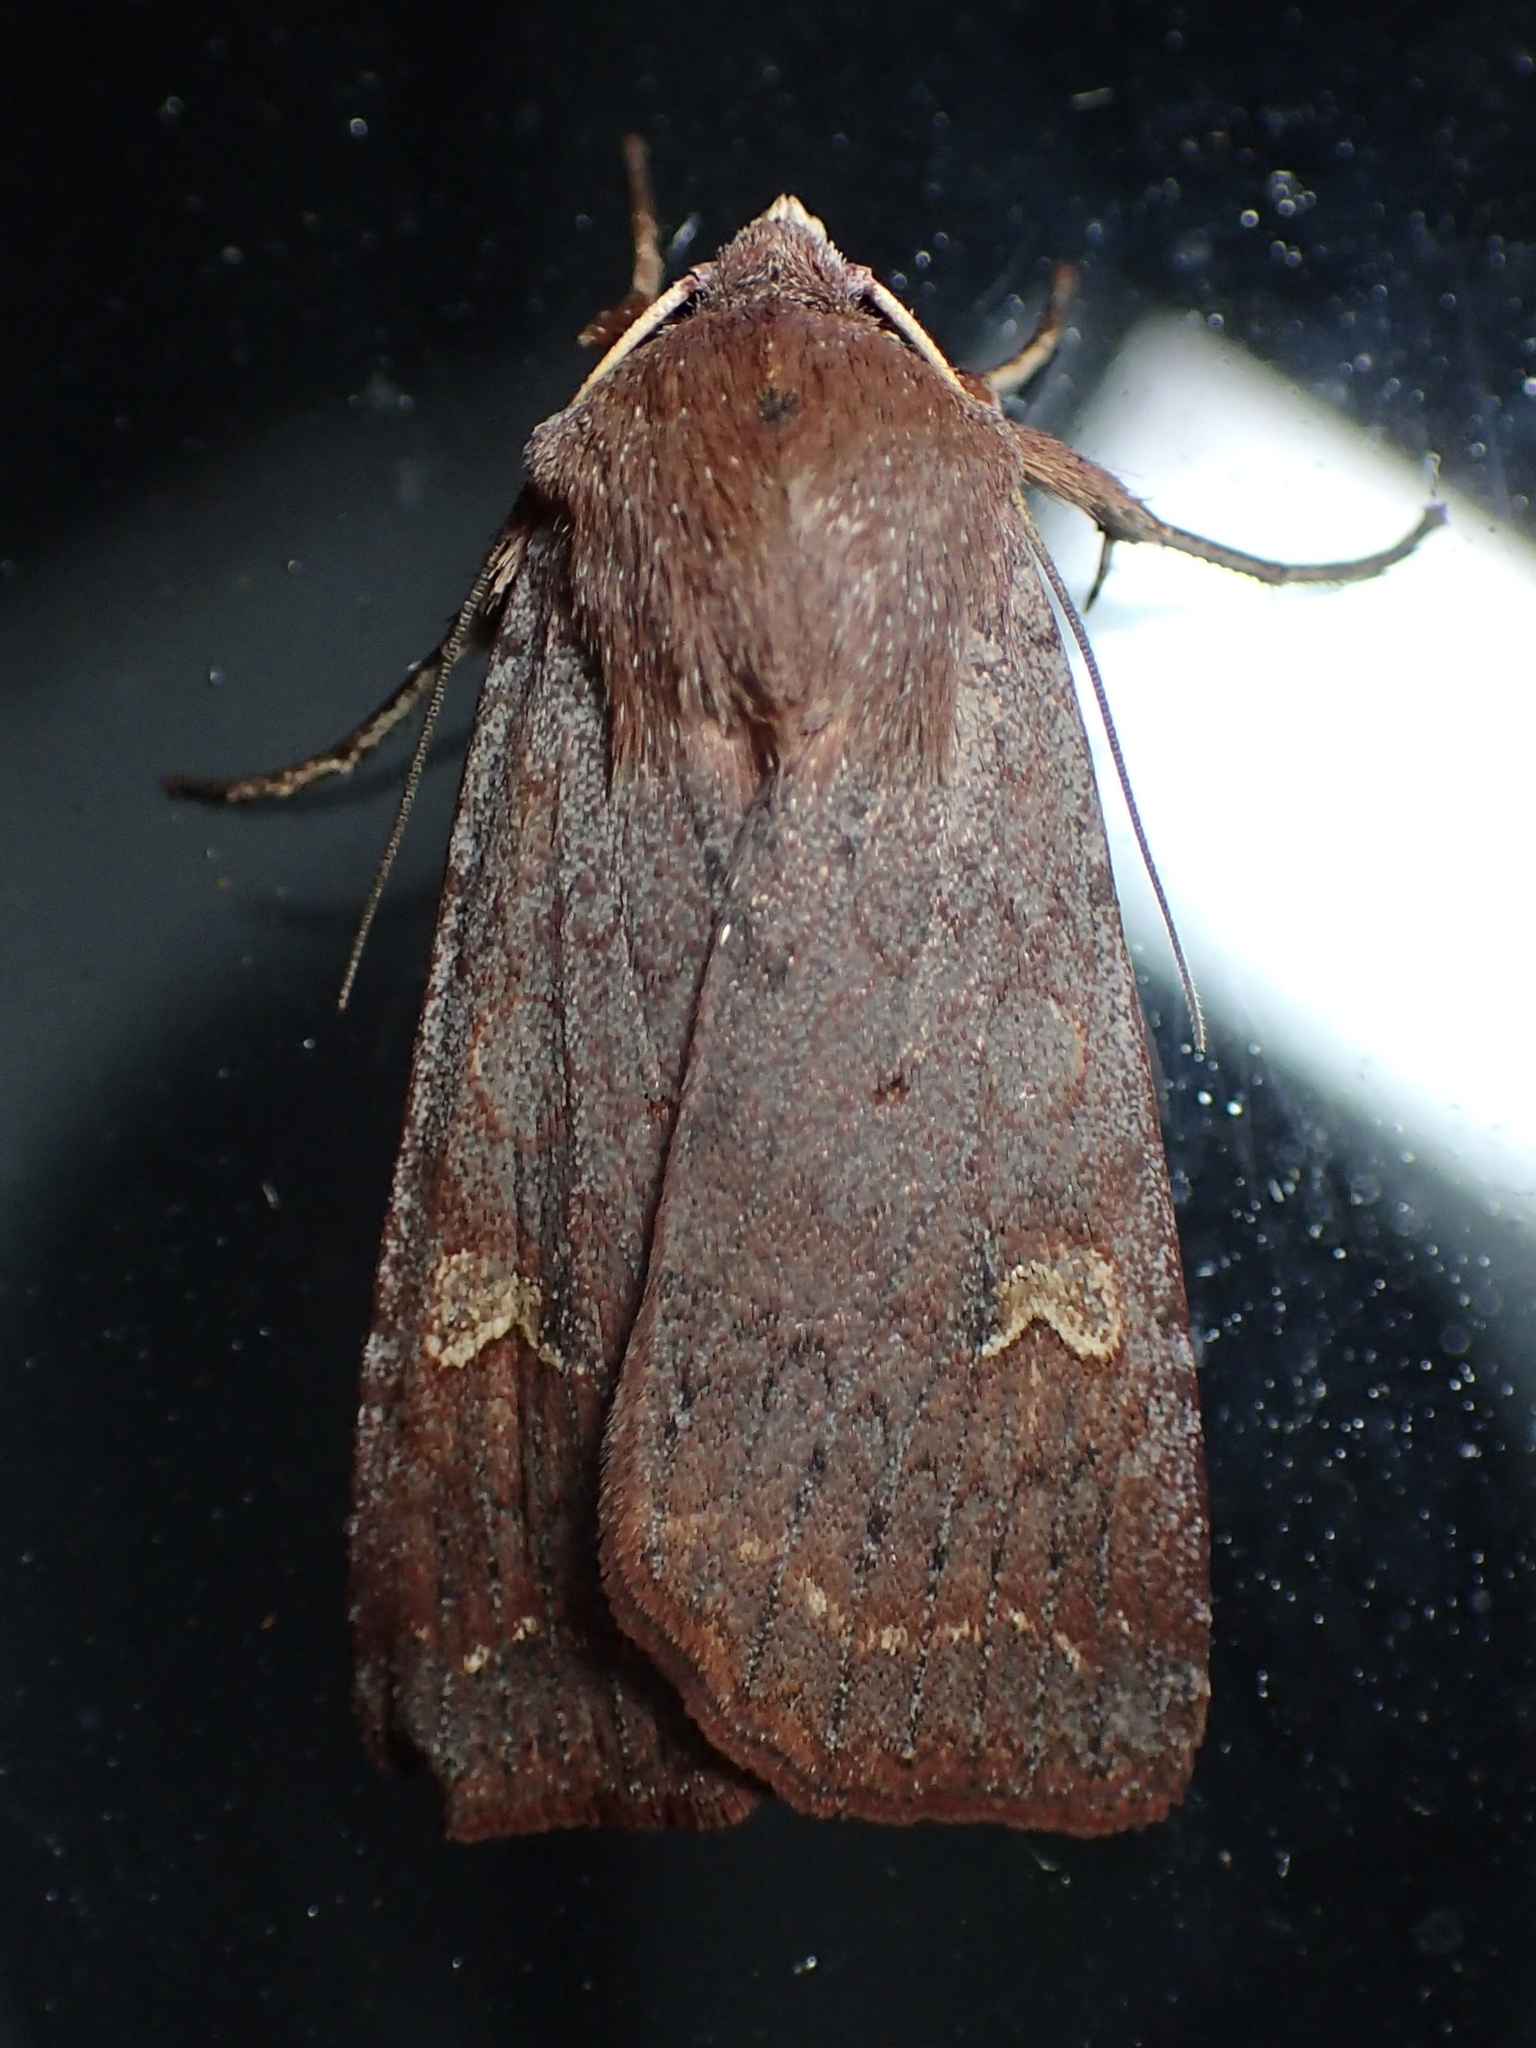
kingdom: Animalia
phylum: Arthropoda
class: Insecta
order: Lepidoptera
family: Noctuidae
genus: Diarsia
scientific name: Diarsia intermixta
